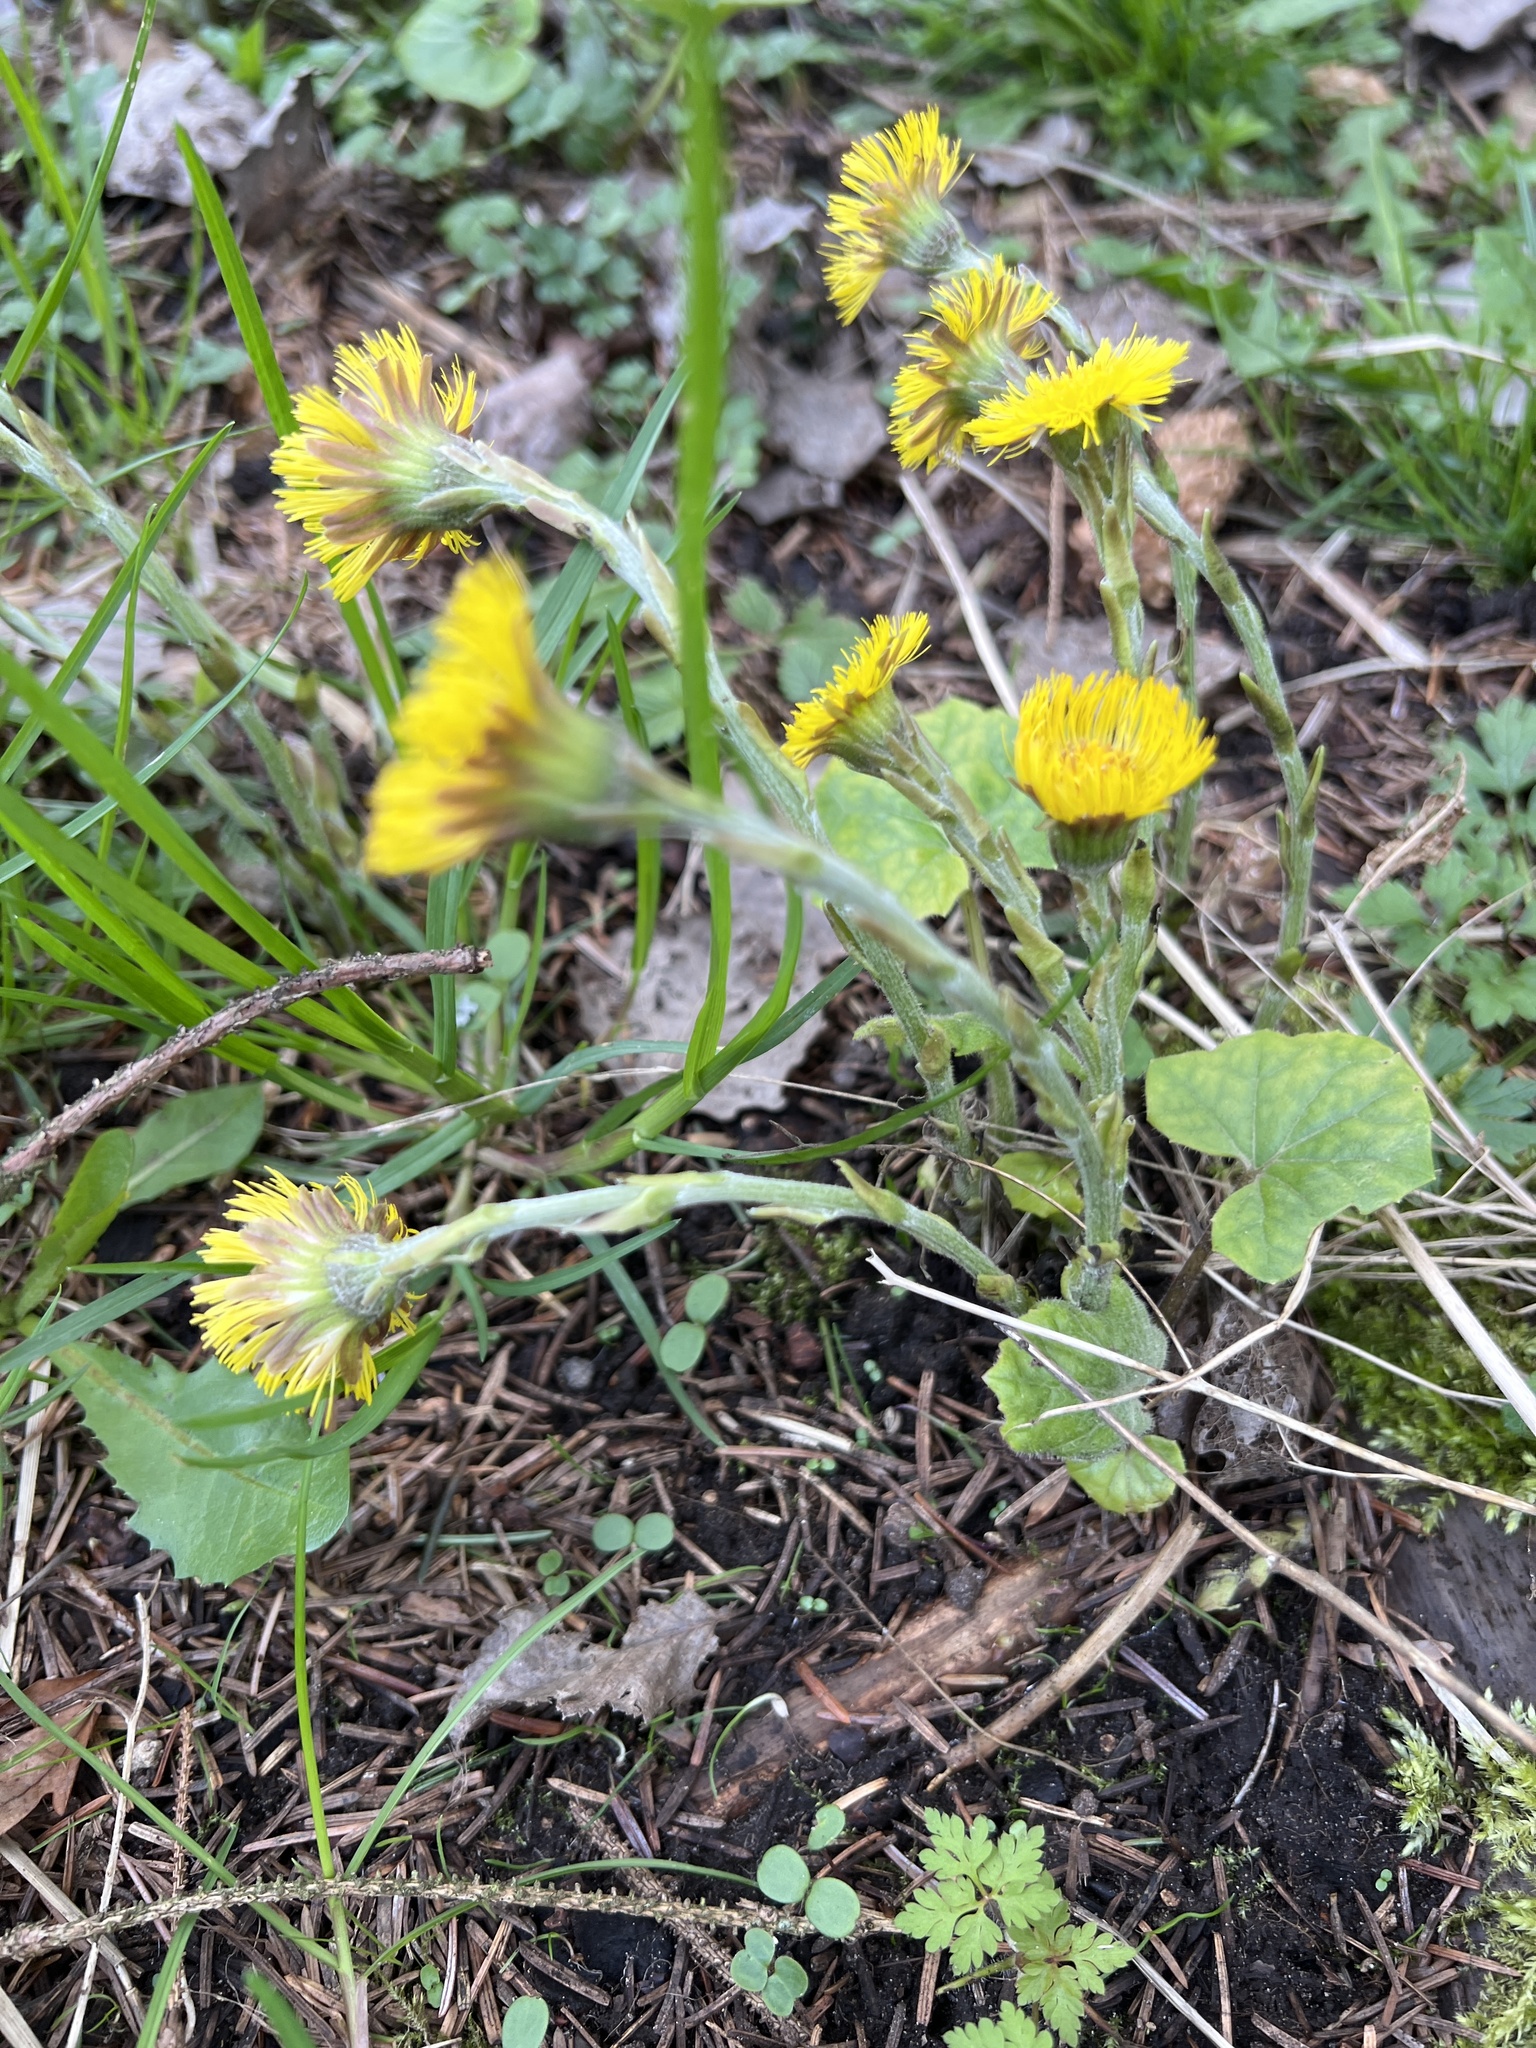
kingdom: Plantae
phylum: Tracheophyta
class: Magnoliopsida
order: Asterales
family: Asteraceae
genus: Tussilago
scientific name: Tussilago farfara
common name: Coltsfoot
